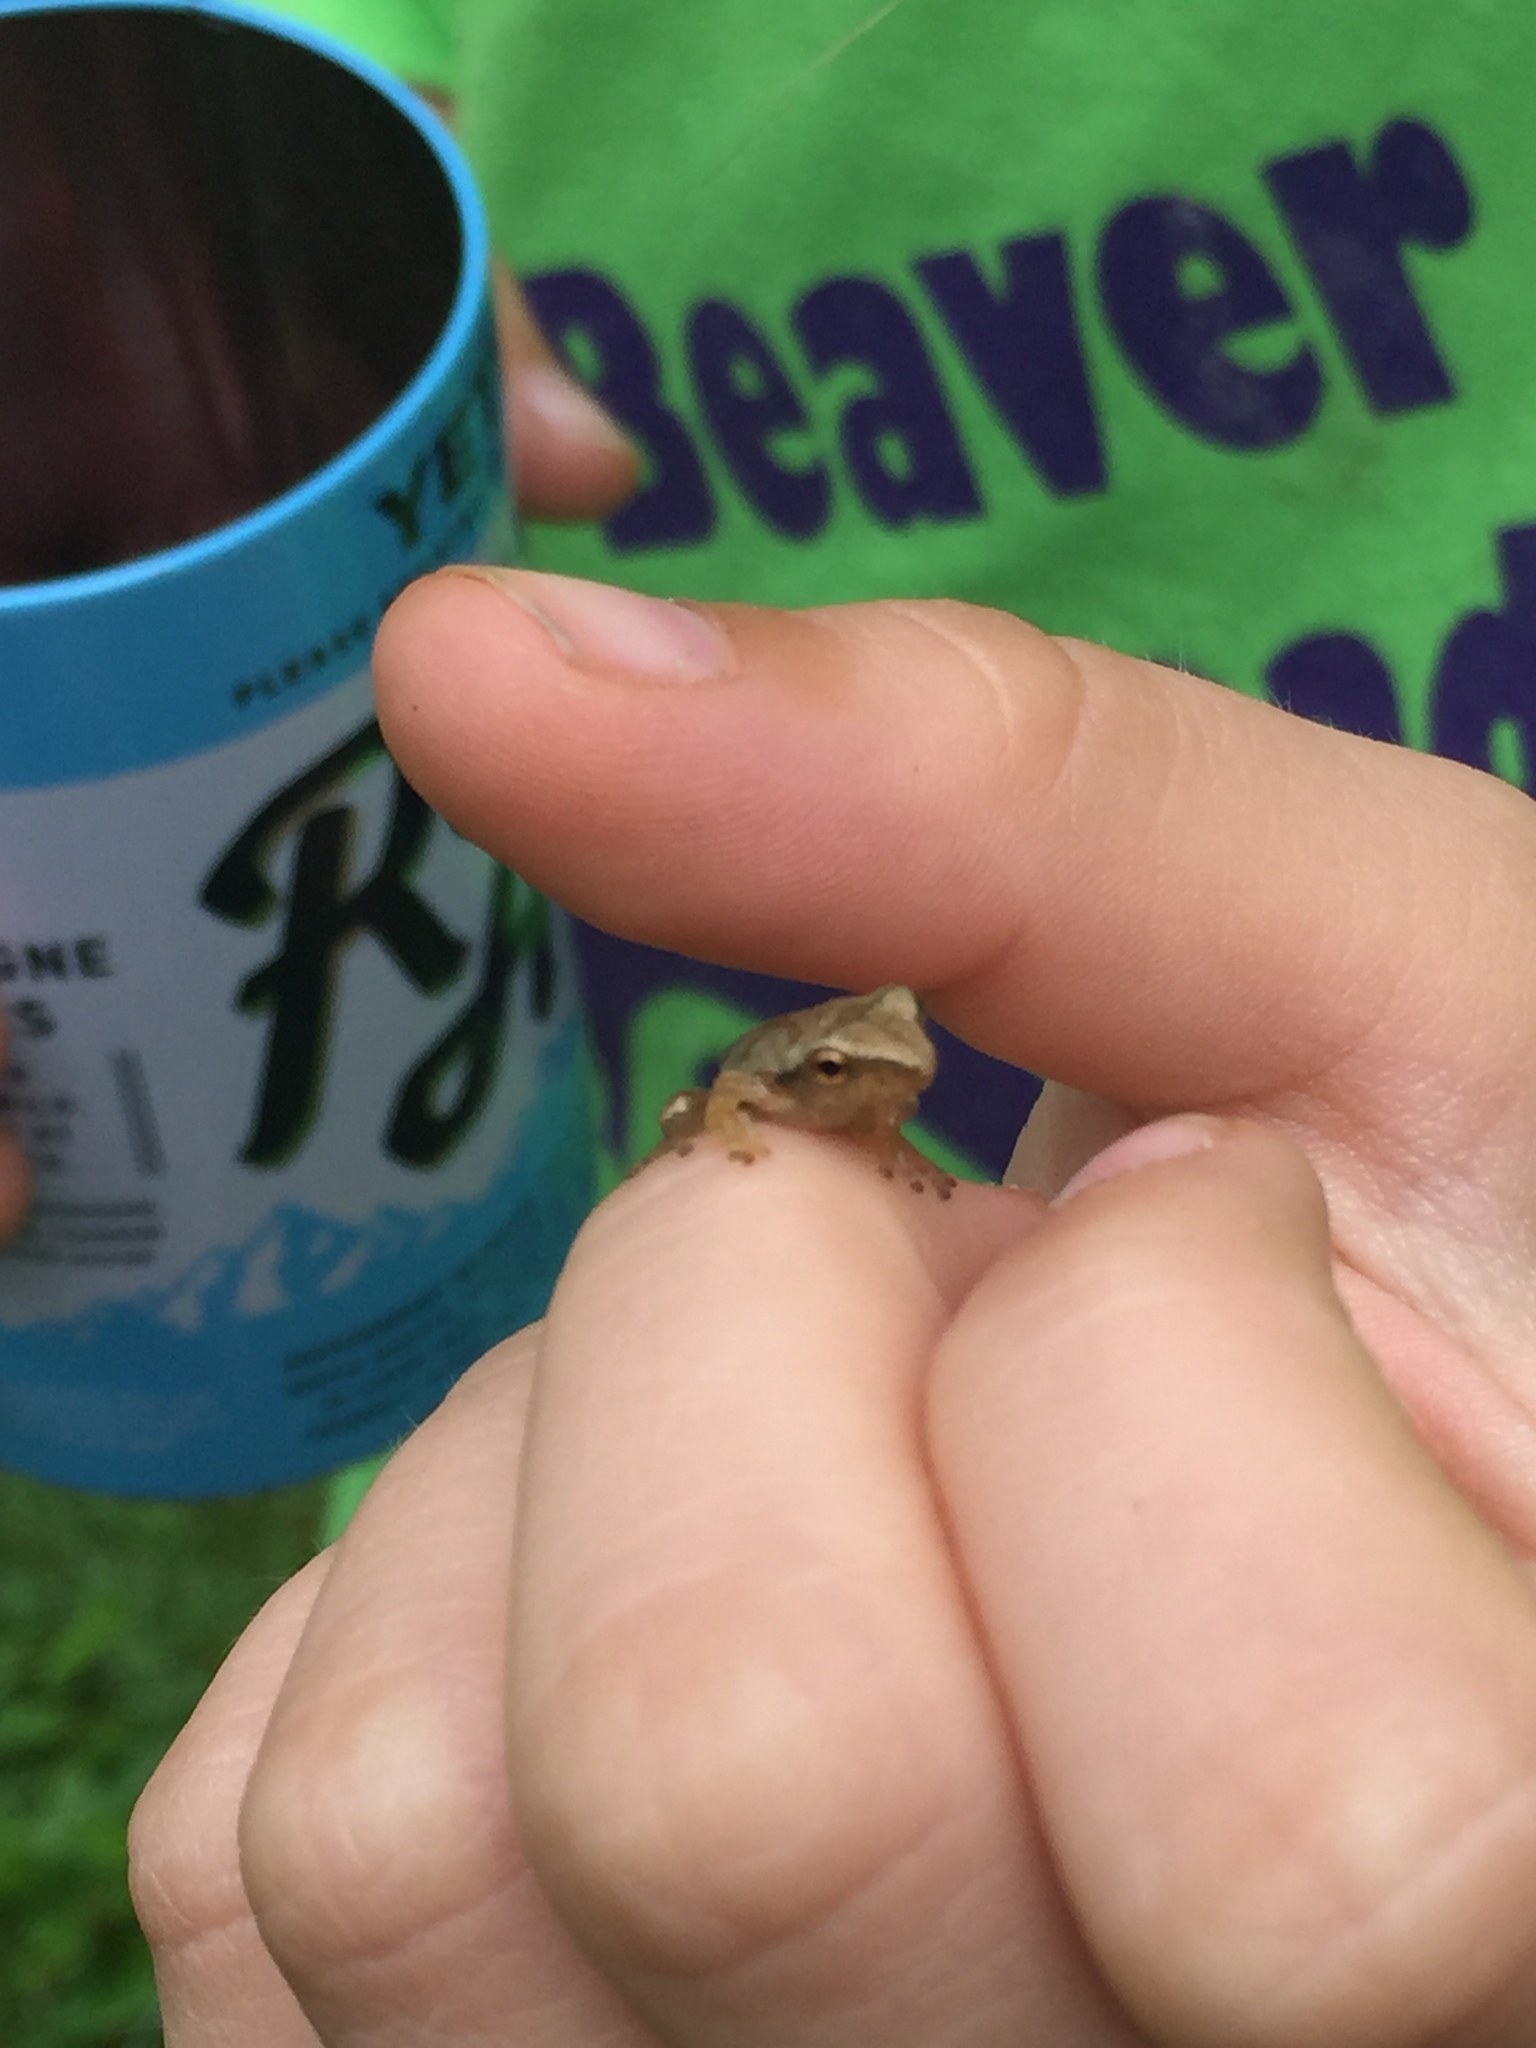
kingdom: Animalia
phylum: Chordata
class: Amphibia
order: Anura
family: Hylidae
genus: Pseudacris
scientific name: Pseudacris crucifer
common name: Spring peeper
